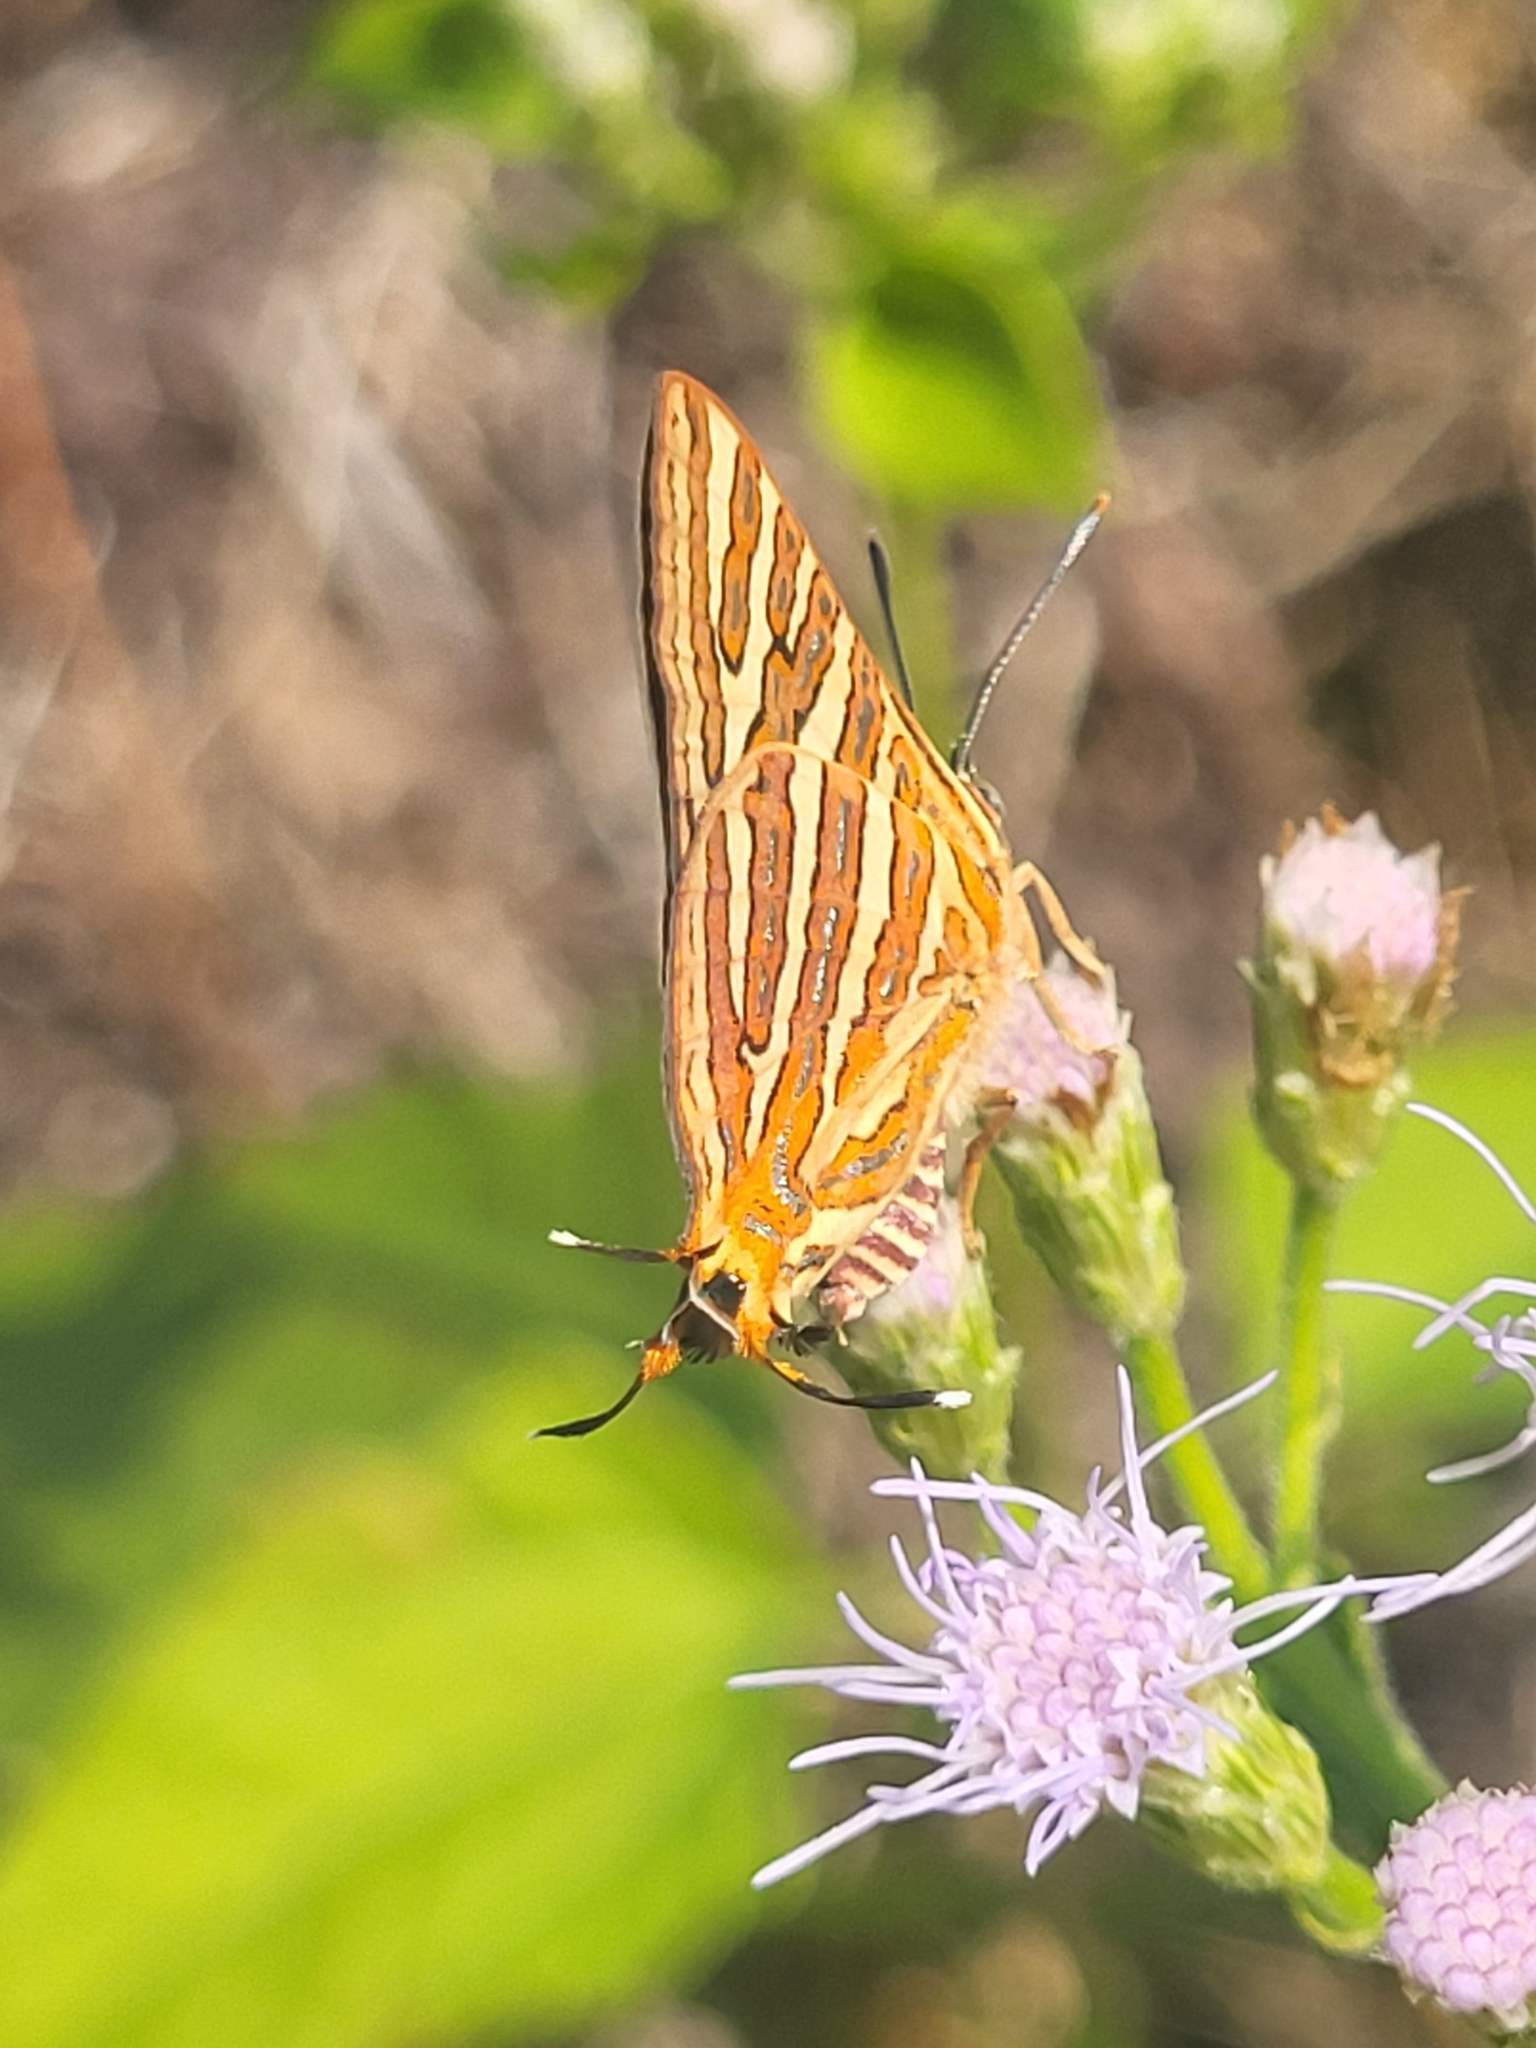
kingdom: Animalia
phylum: Arthropoda
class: Insecta
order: Lepidoptera
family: Lycaenidae
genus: Cigaritis
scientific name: Cigaritis vulcanus
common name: Common silverline
